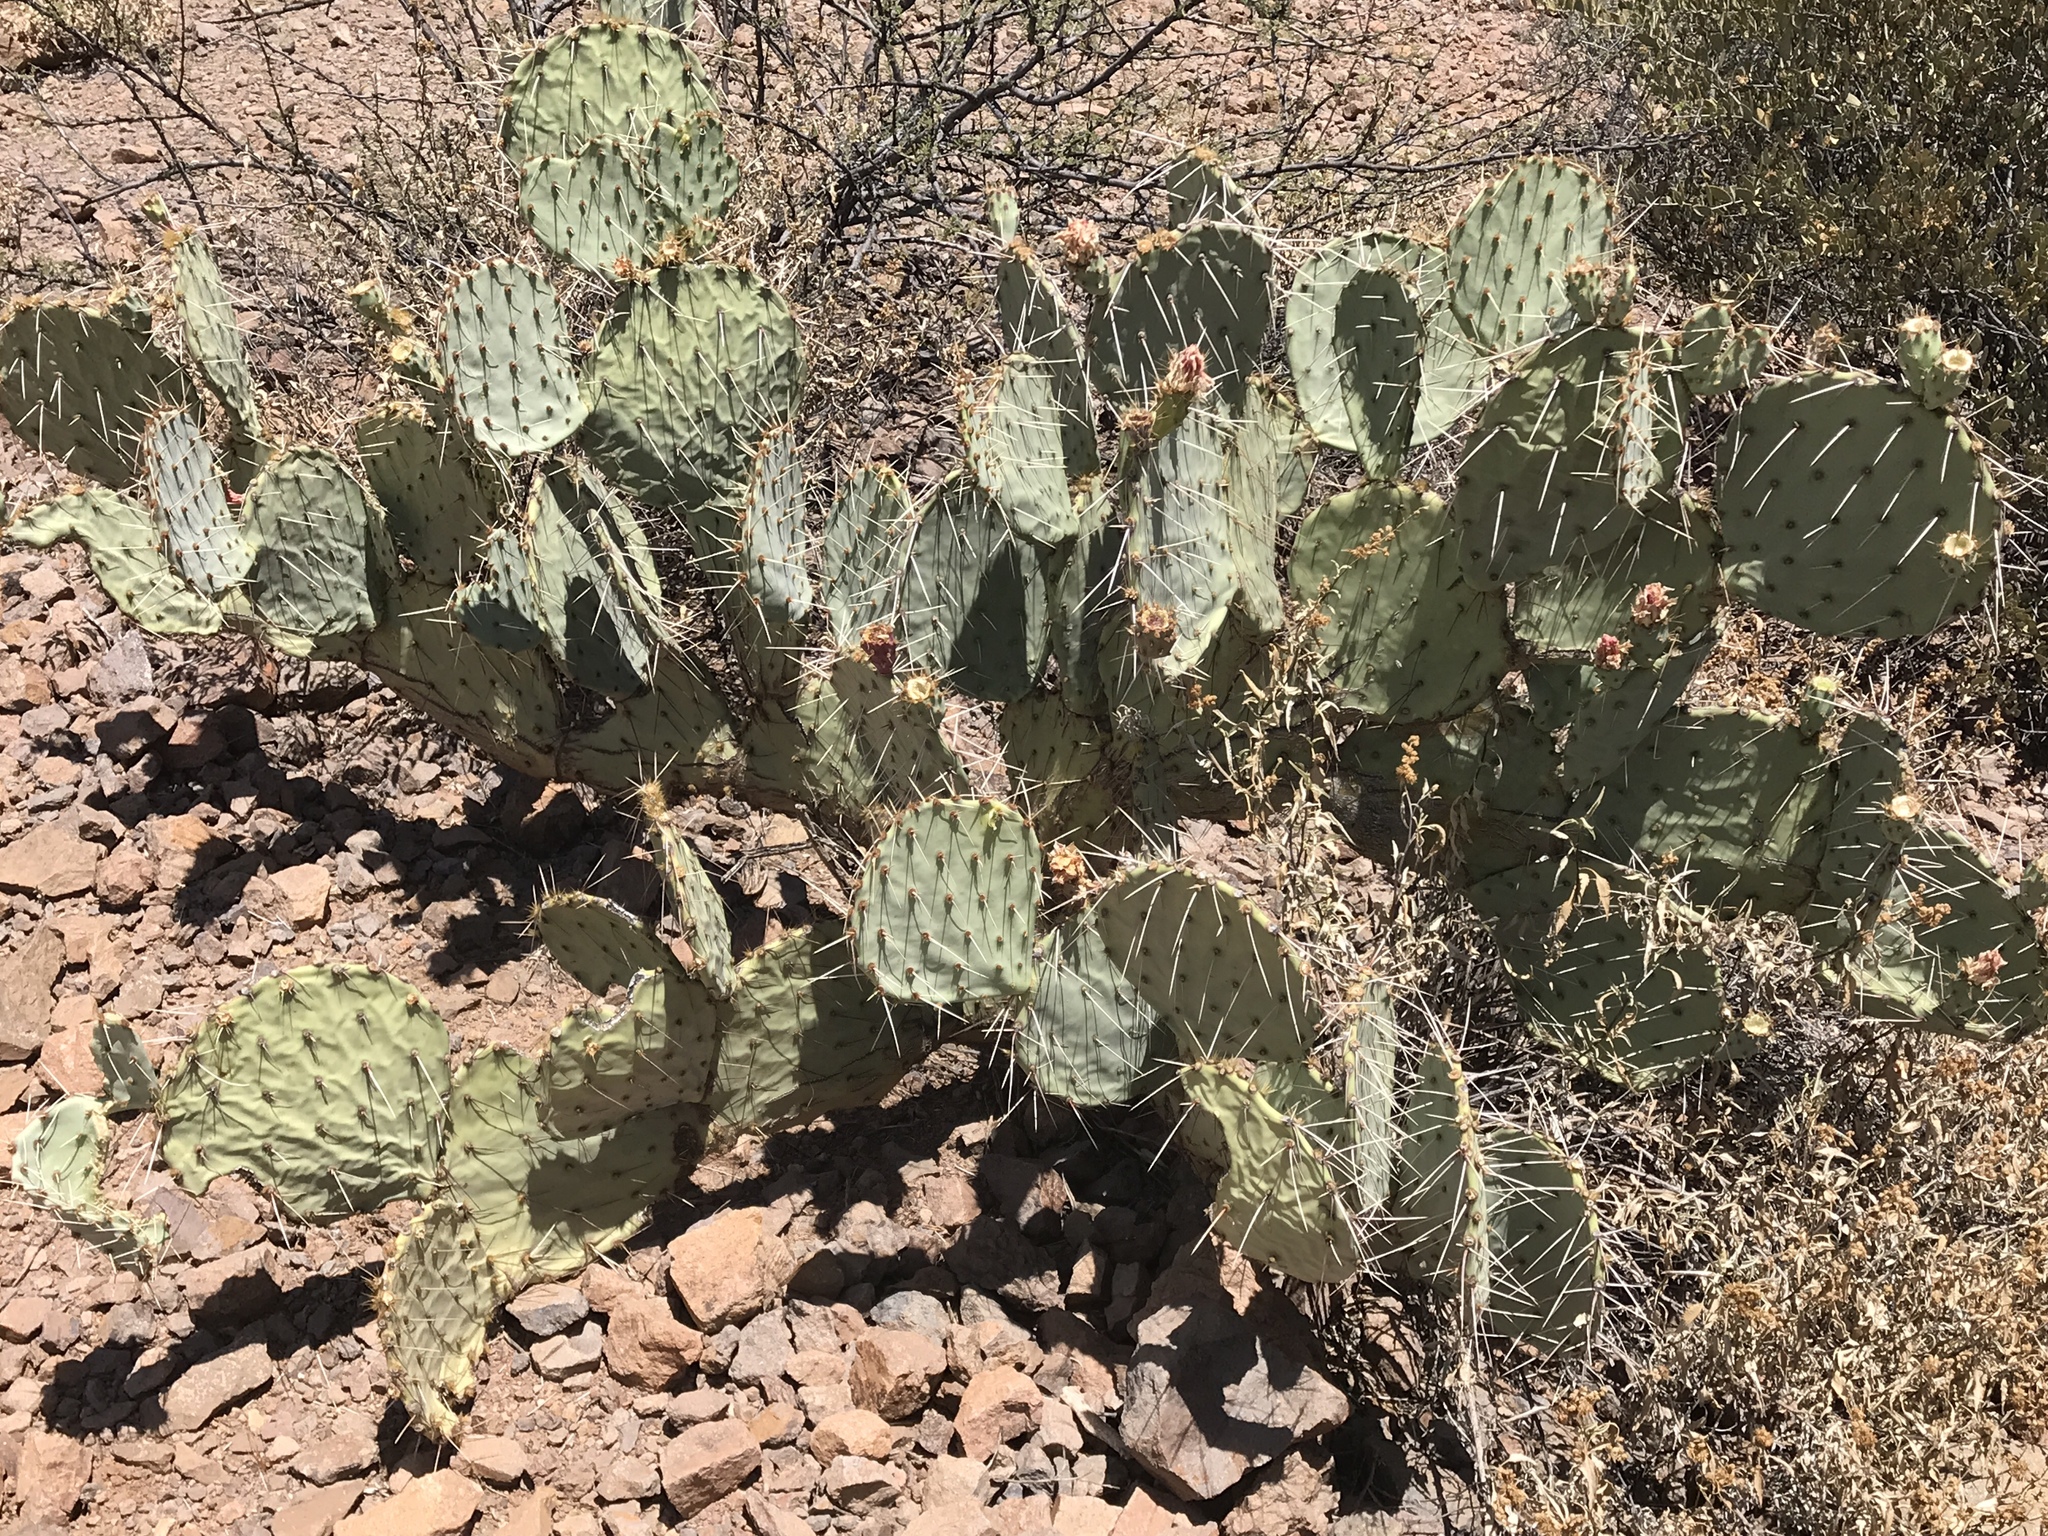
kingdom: Plantae
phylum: Tracheophyta
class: Magnoliopsida
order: Caryophyllales
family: Cactaceae
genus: Opuntia
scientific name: Opuntia engelmannii
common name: Cactus-apple
